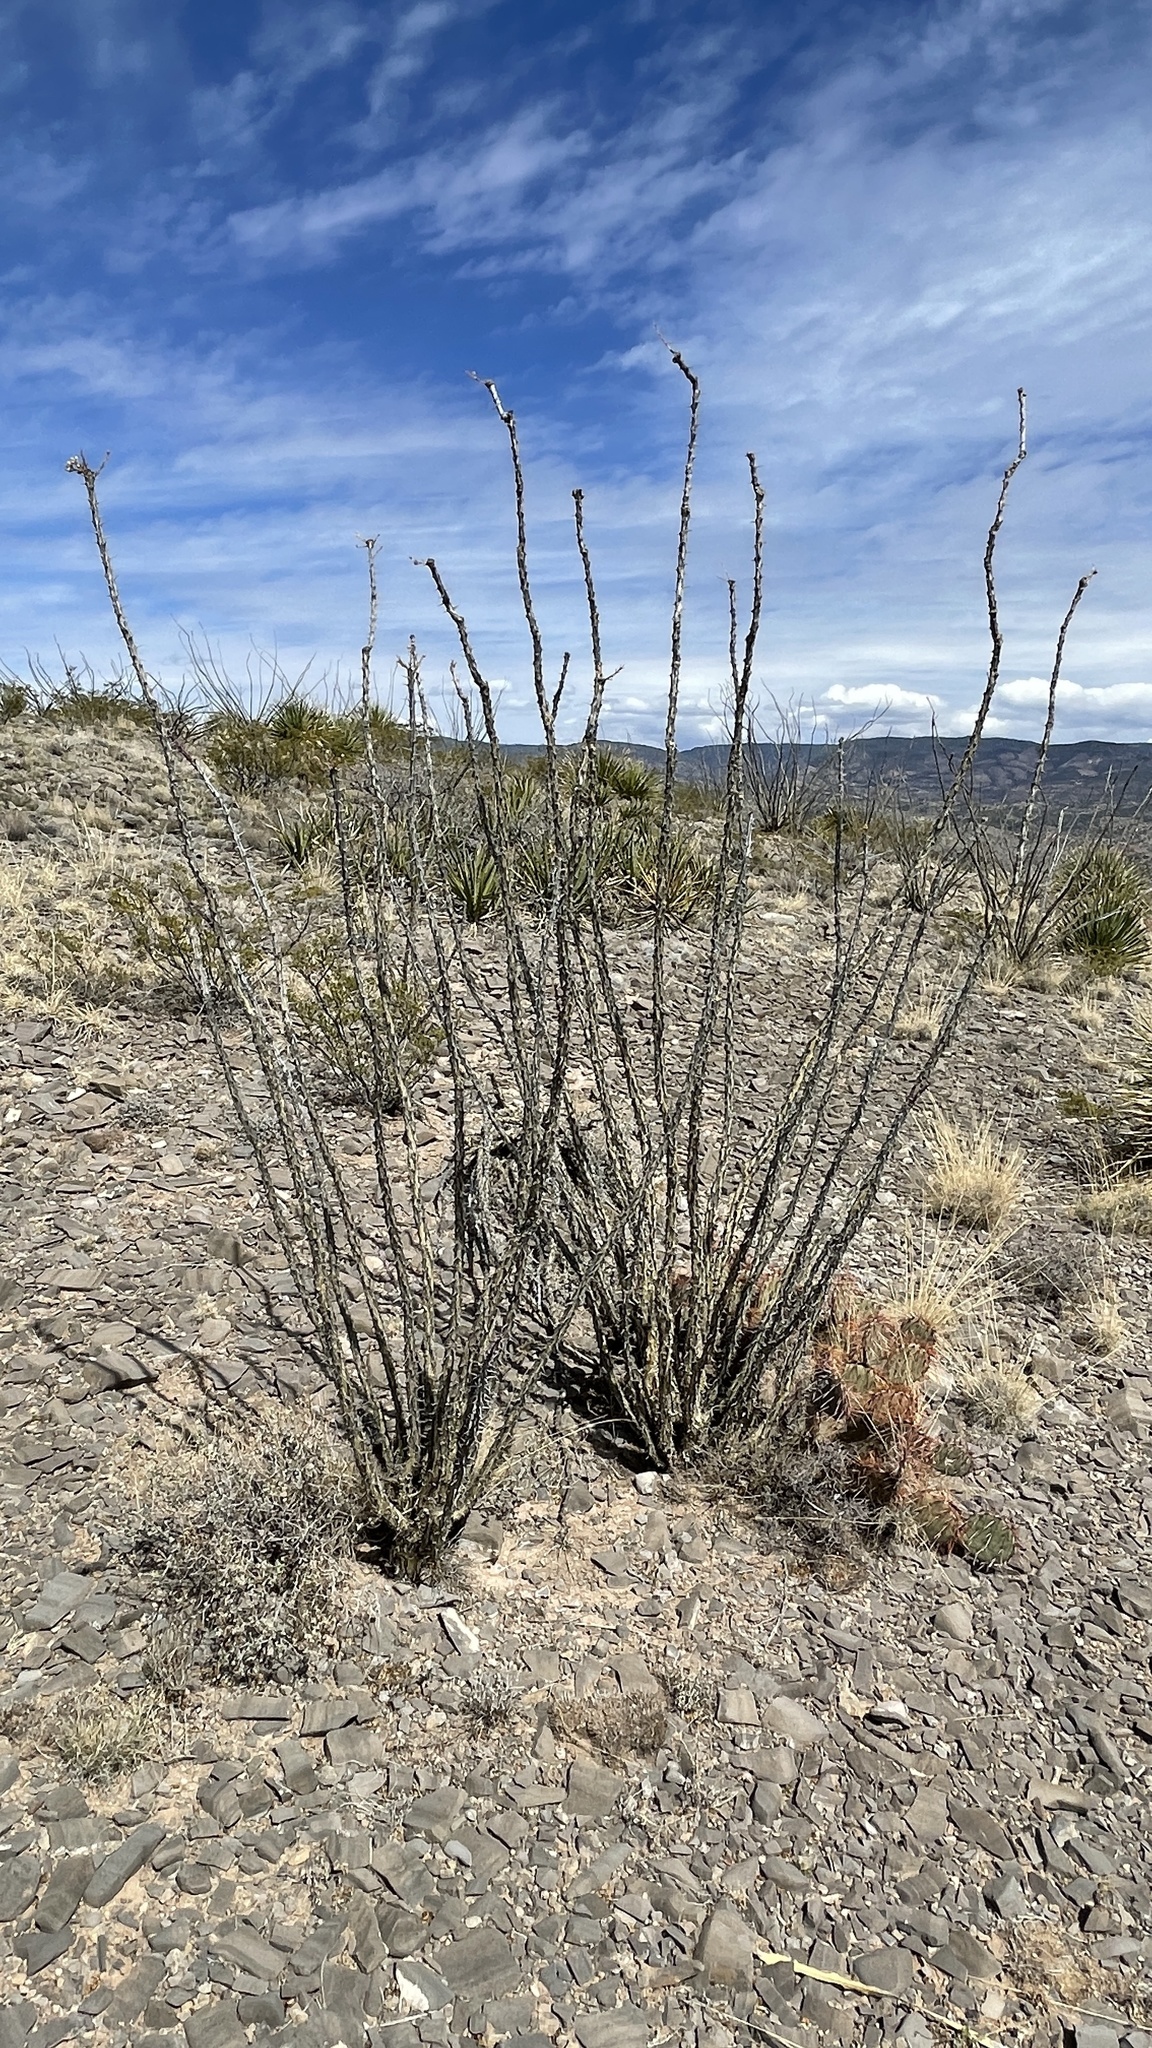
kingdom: Plantae
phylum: Tracheophyta
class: Magnoliopsida
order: Ericales
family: Fouquieriaceae
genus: Fouquieria
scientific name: Fouquieria splendens
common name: Vine-cactus
